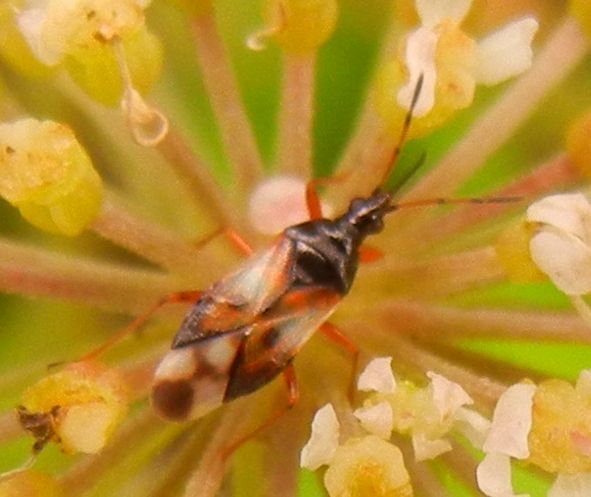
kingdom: Animalia
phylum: Arthropoda
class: Insecta
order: Hemiptera
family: Anthocoridae
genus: Anthocoris
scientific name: Anthocoris nemorum
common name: Minute pirate bug
